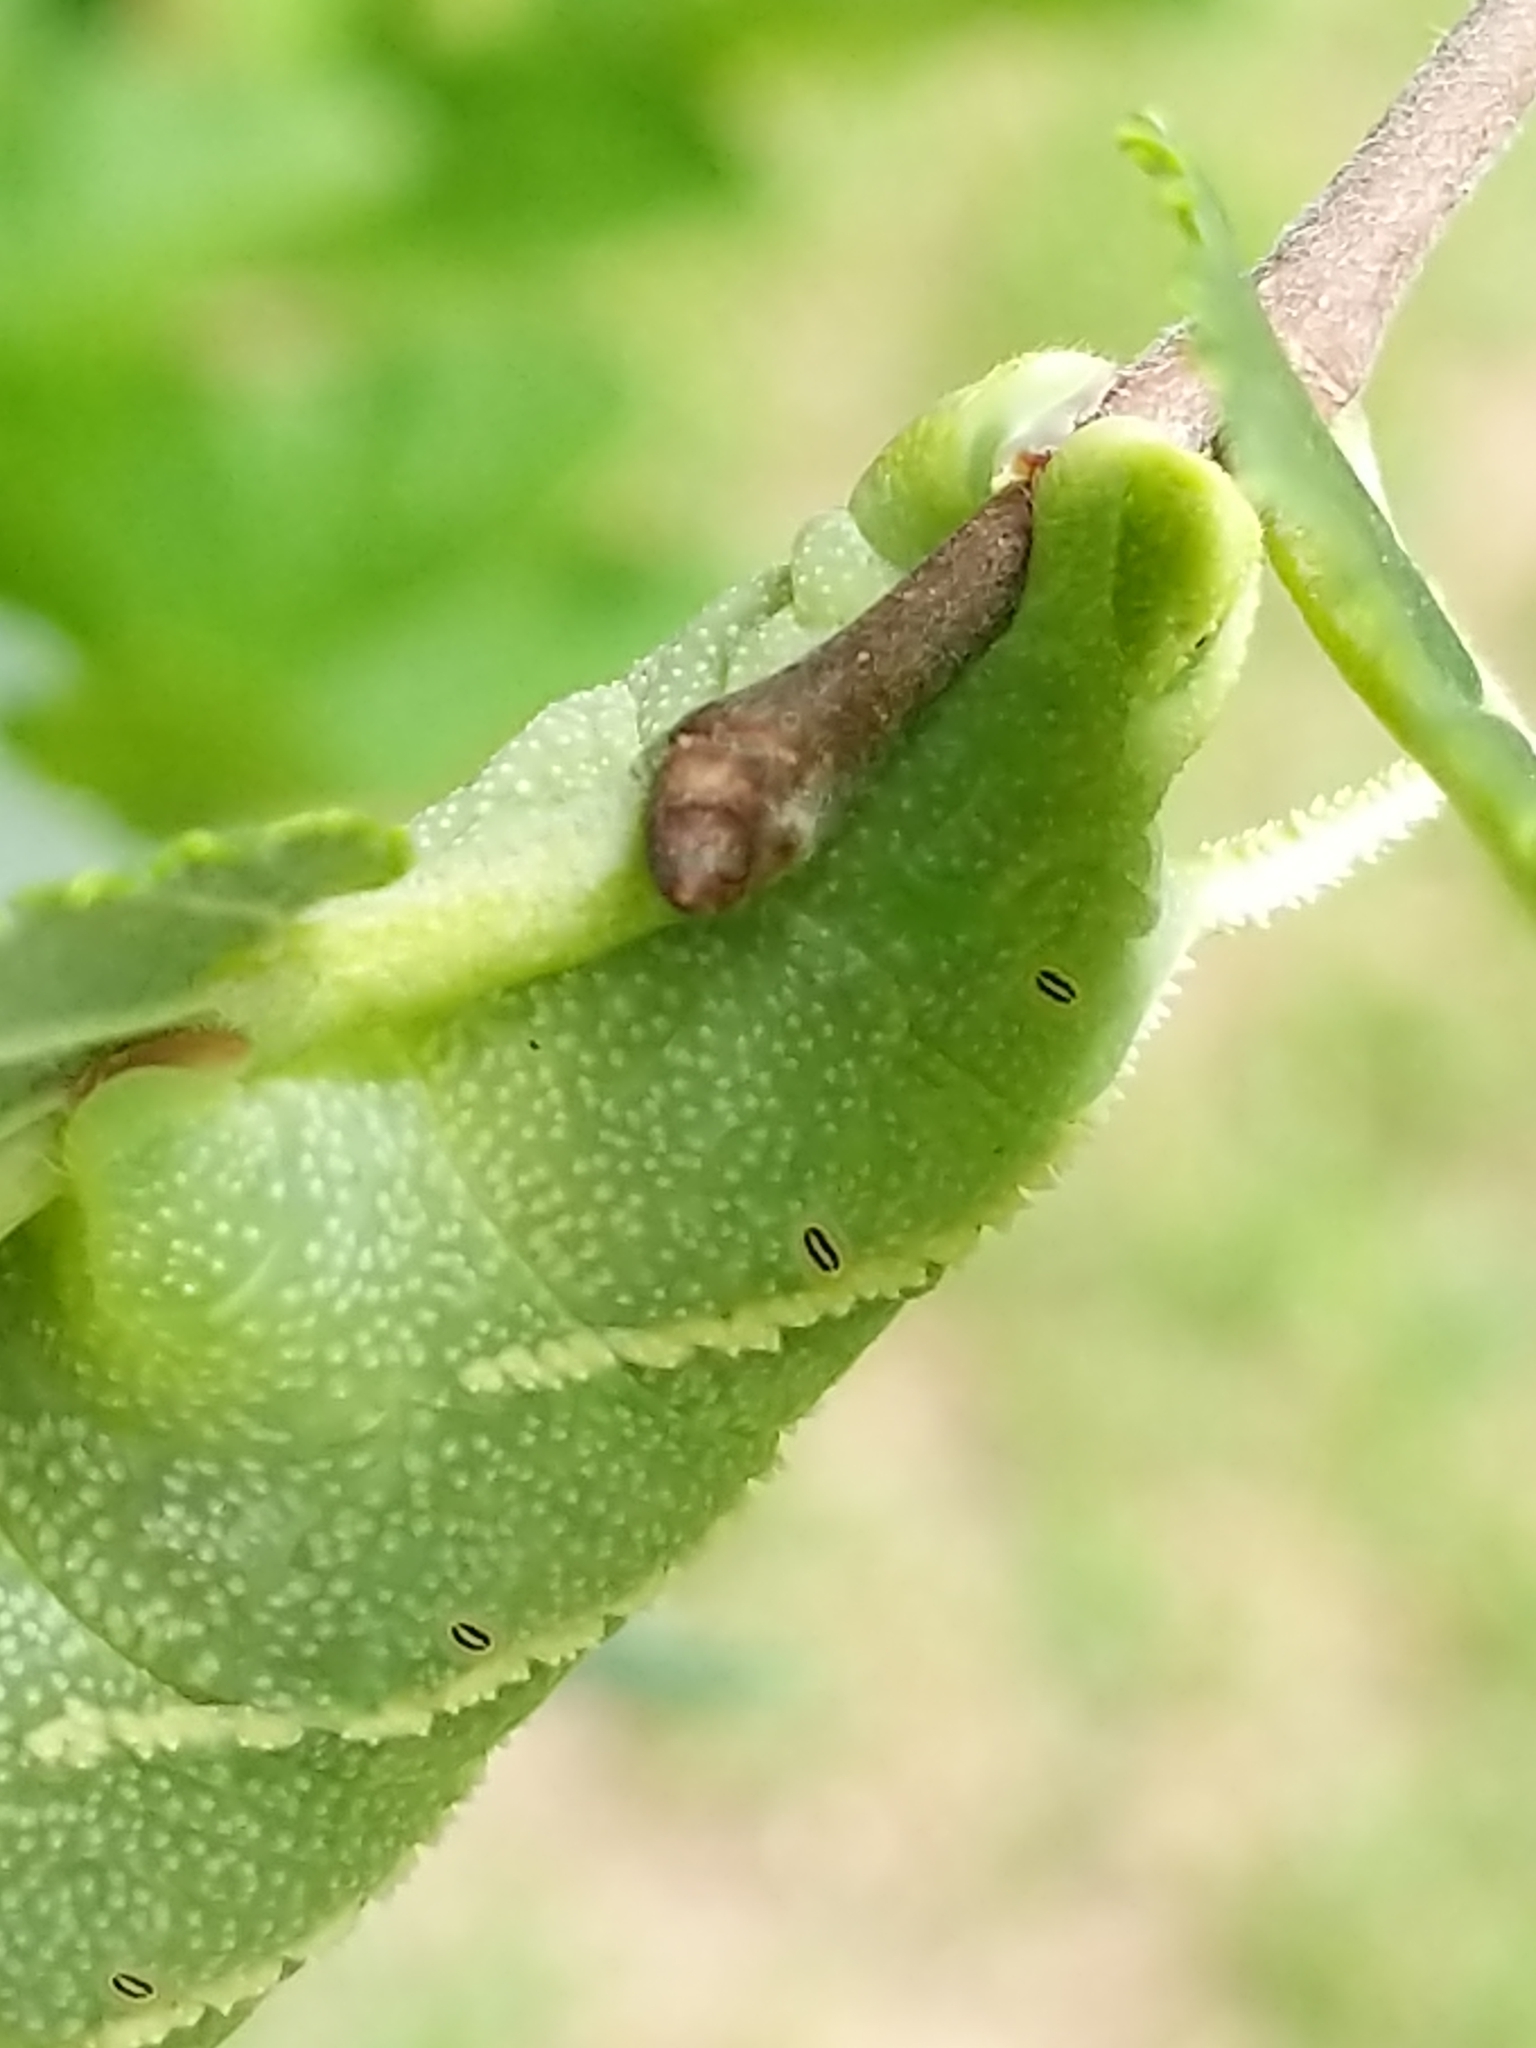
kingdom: Animalia
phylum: Arthropoda
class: Insecta
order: Lepidoptera
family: Sphingidae
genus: Ceratomia
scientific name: Ceratomia amyntor
